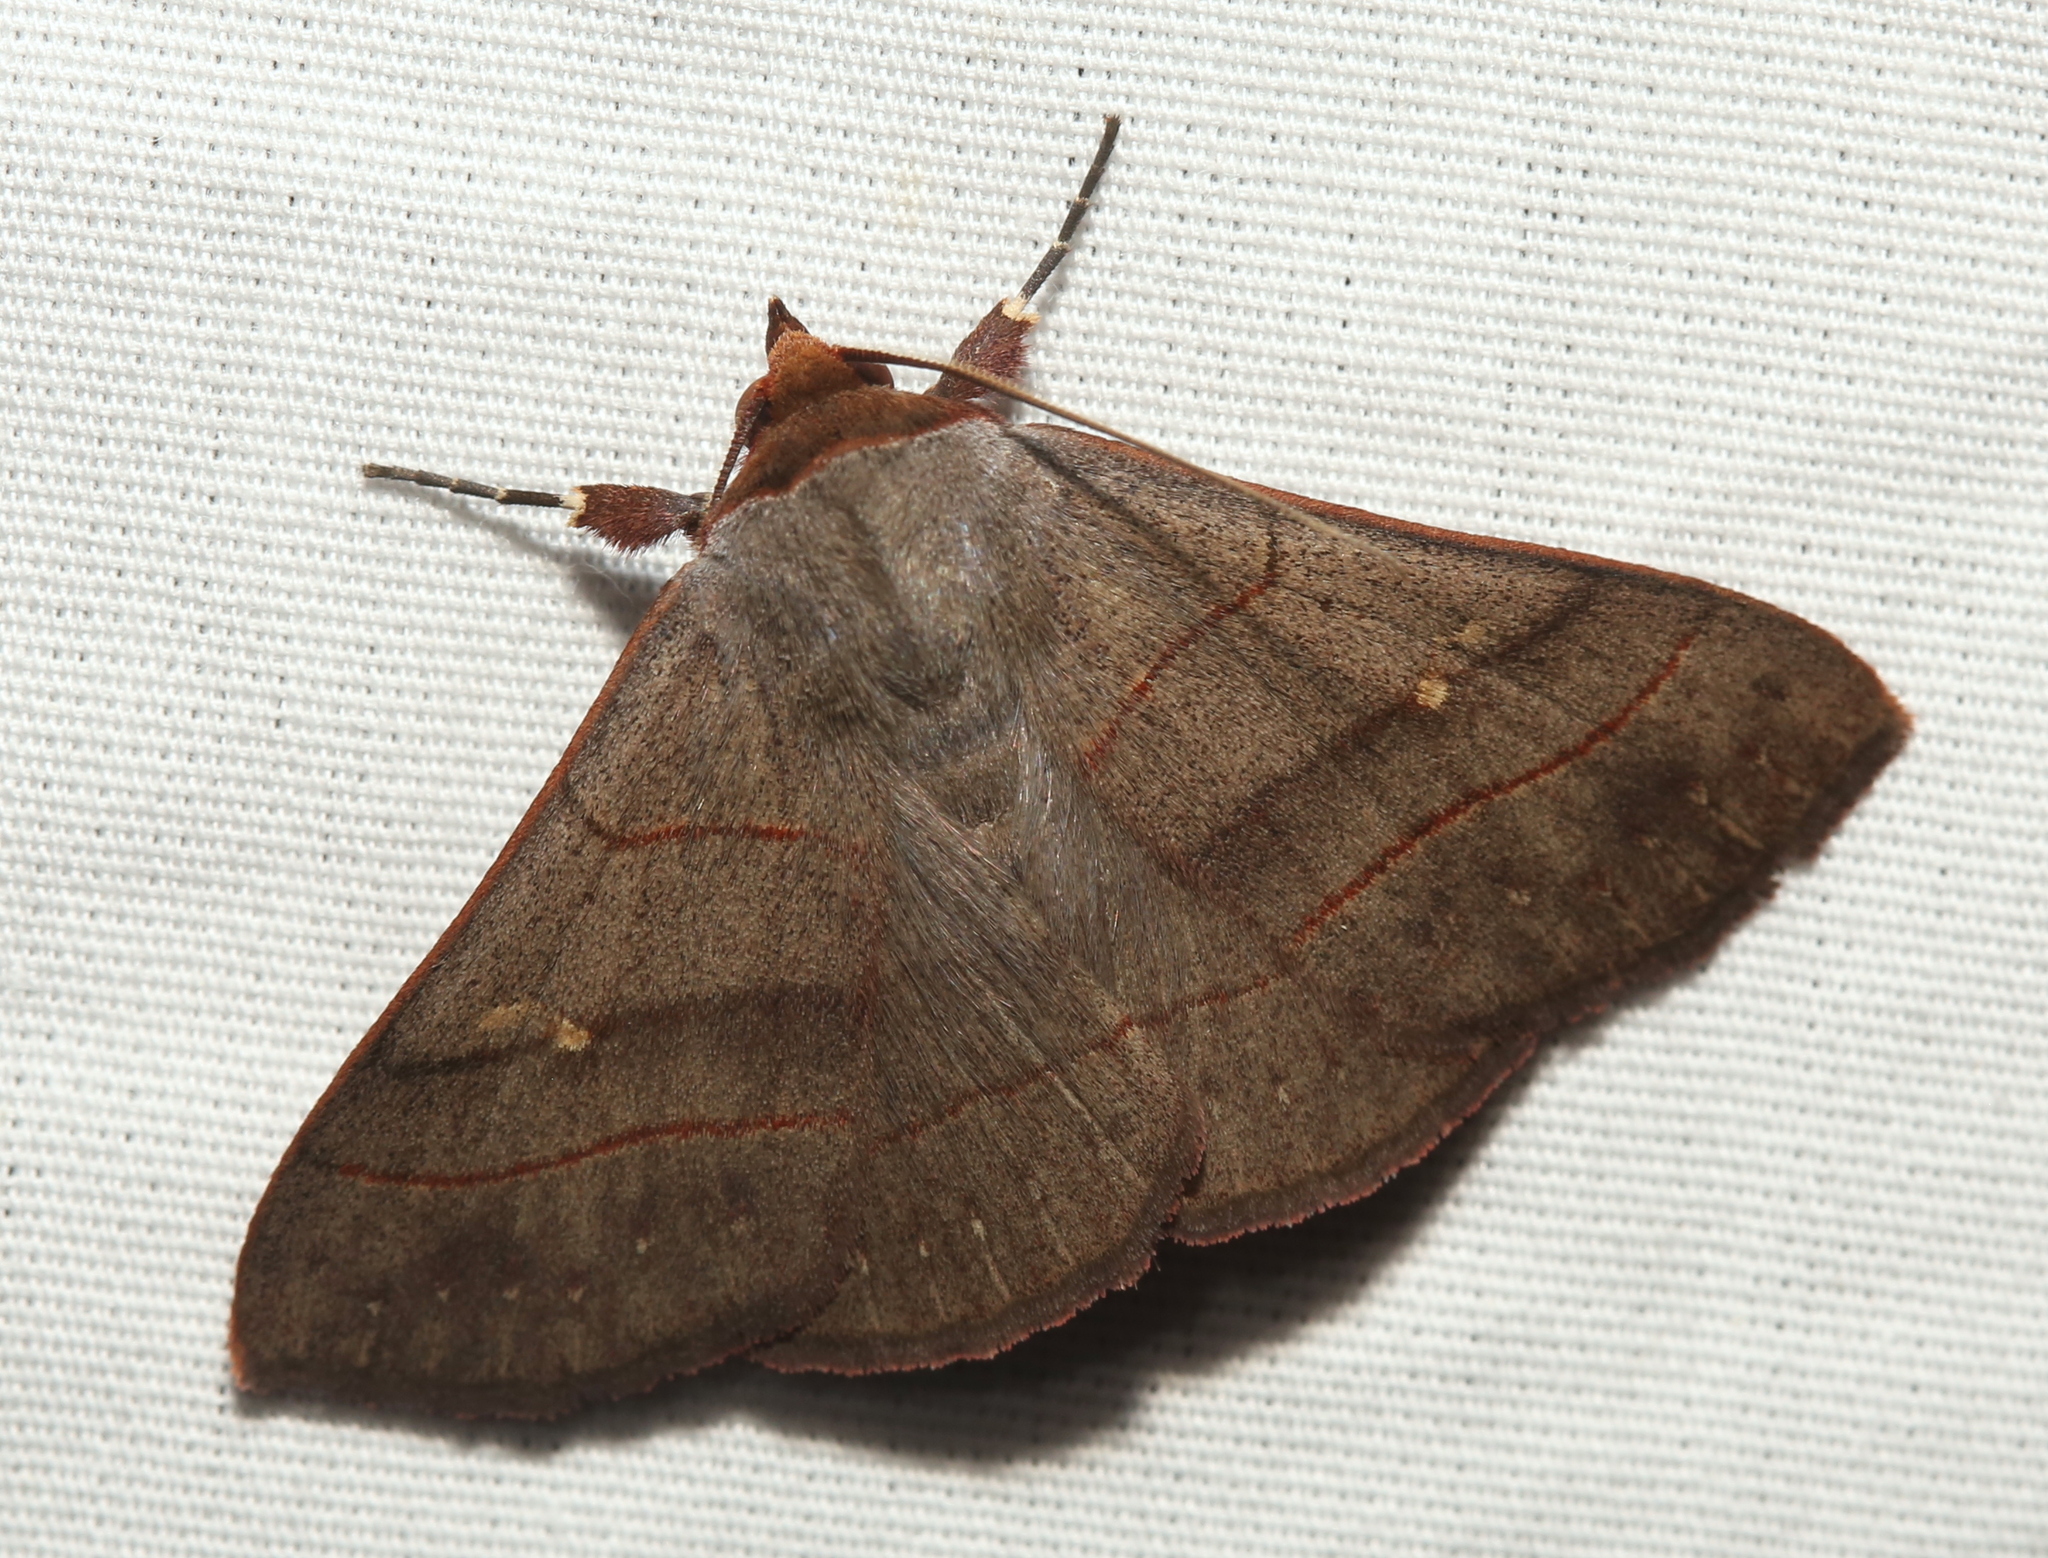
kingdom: Animalia
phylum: Arthropoda
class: Insecta
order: Lepidoptera
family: Erebidae
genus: Panopoda
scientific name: Panopoda rufimargo
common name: Red-lined panopoda moth
